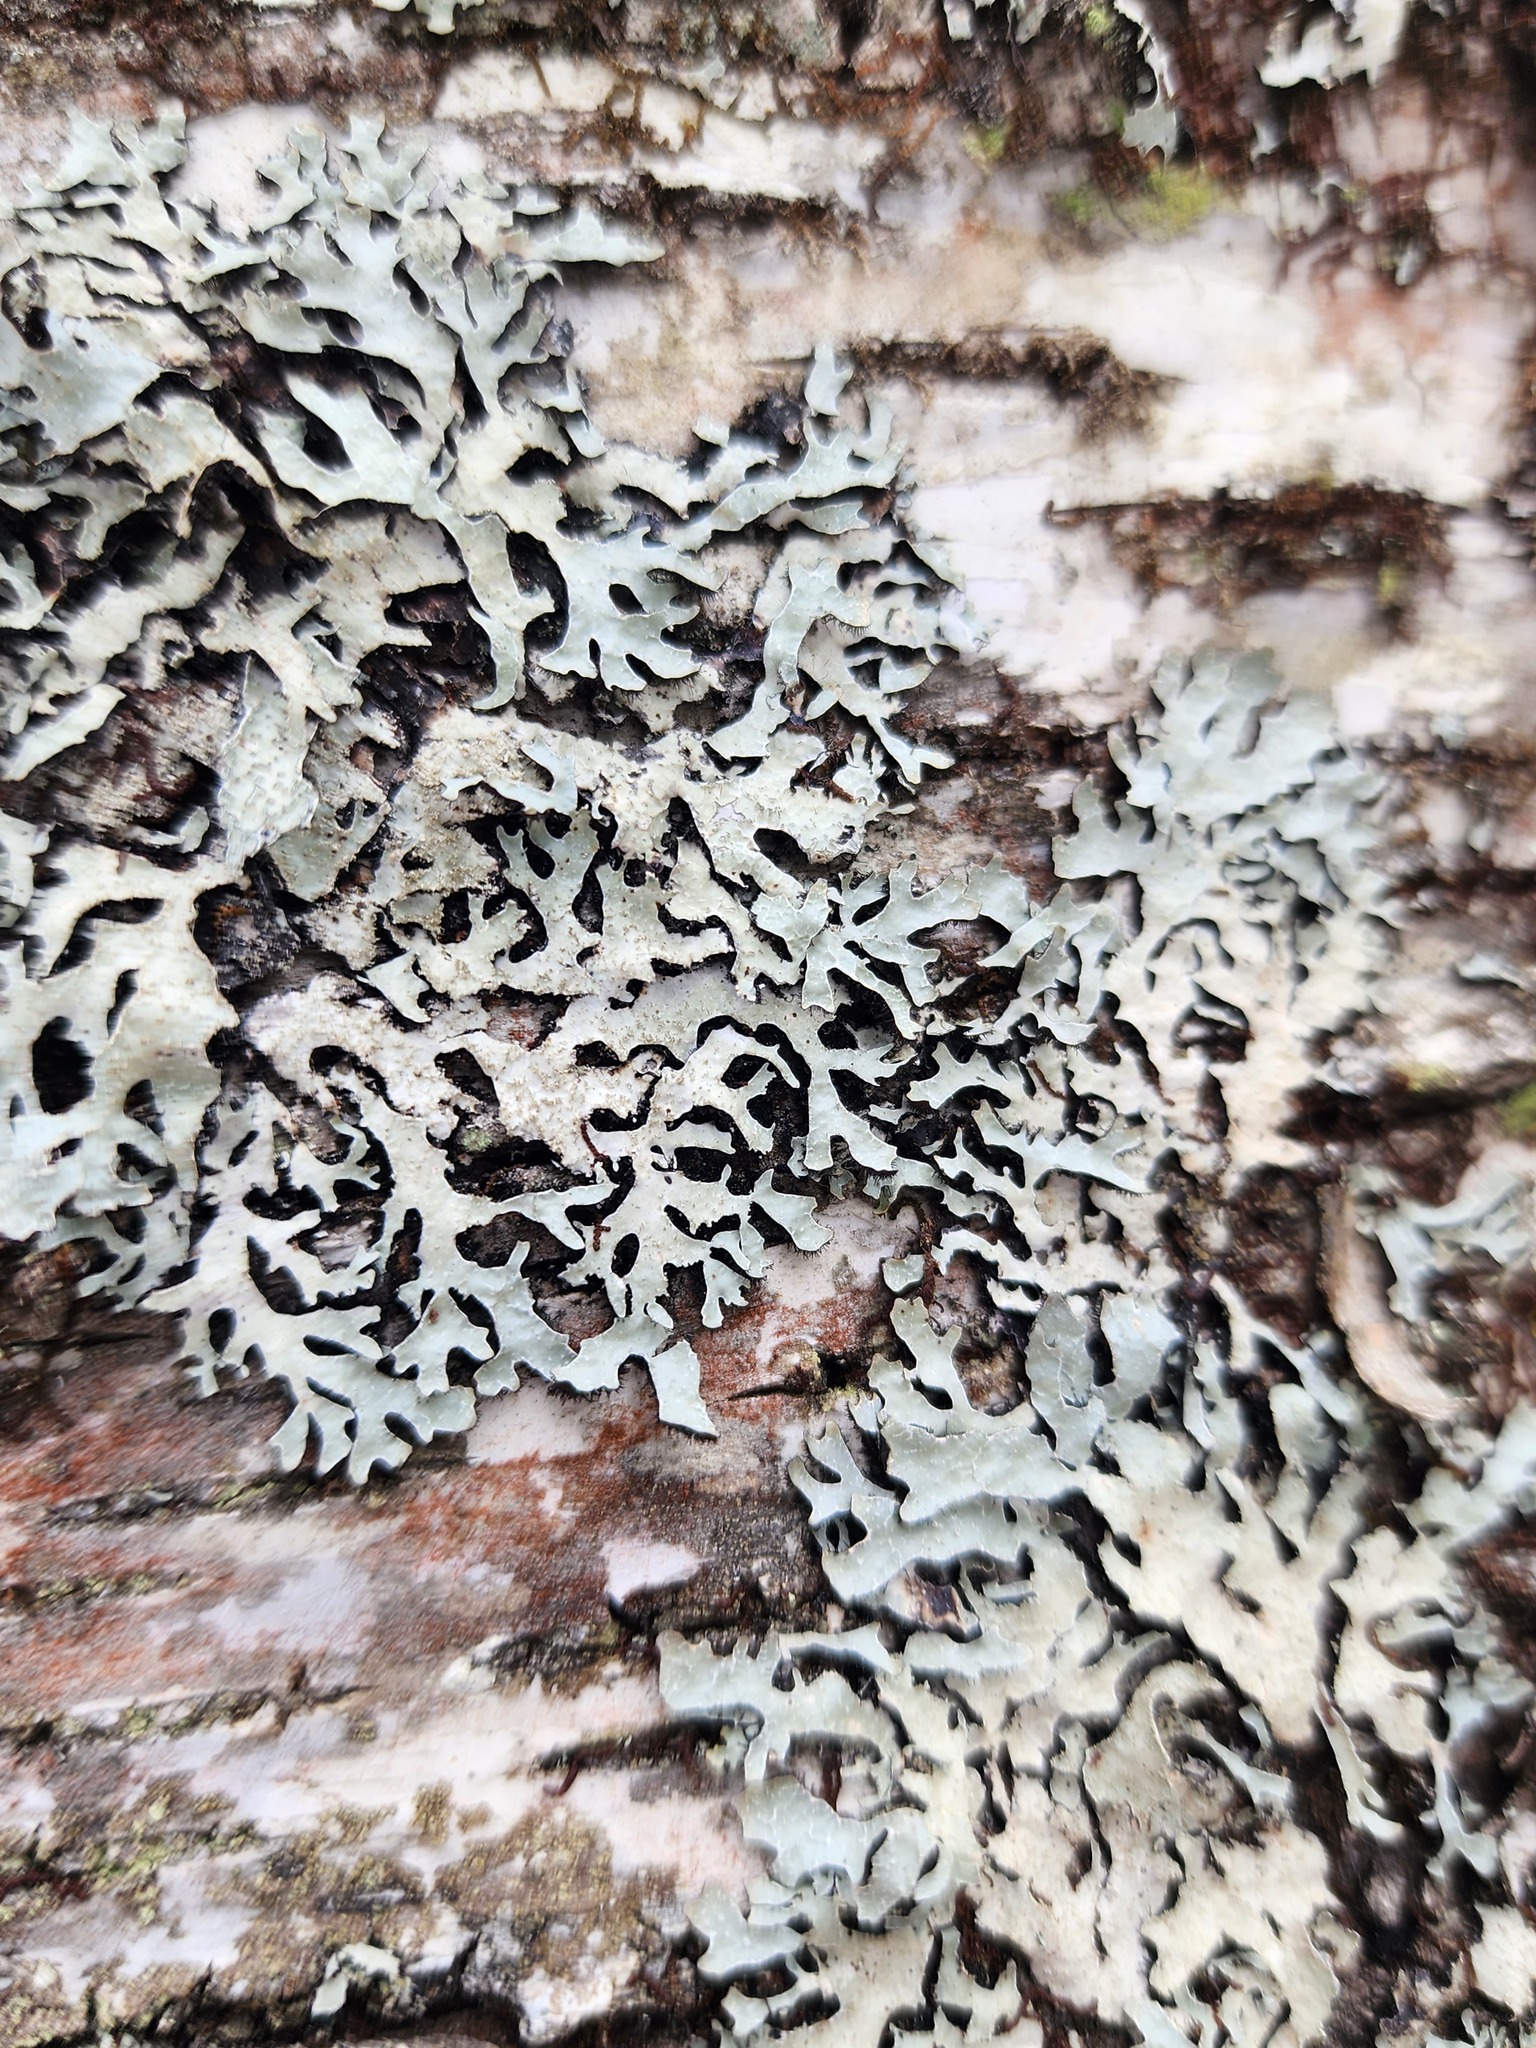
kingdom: Fungi
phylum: Ascomycota
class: Lecanoromycetes
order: Lecanorales
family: Parmeliaceae
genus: Parmelia
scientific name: Parmelia squarrosa
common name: Bottle brush shield lichen
